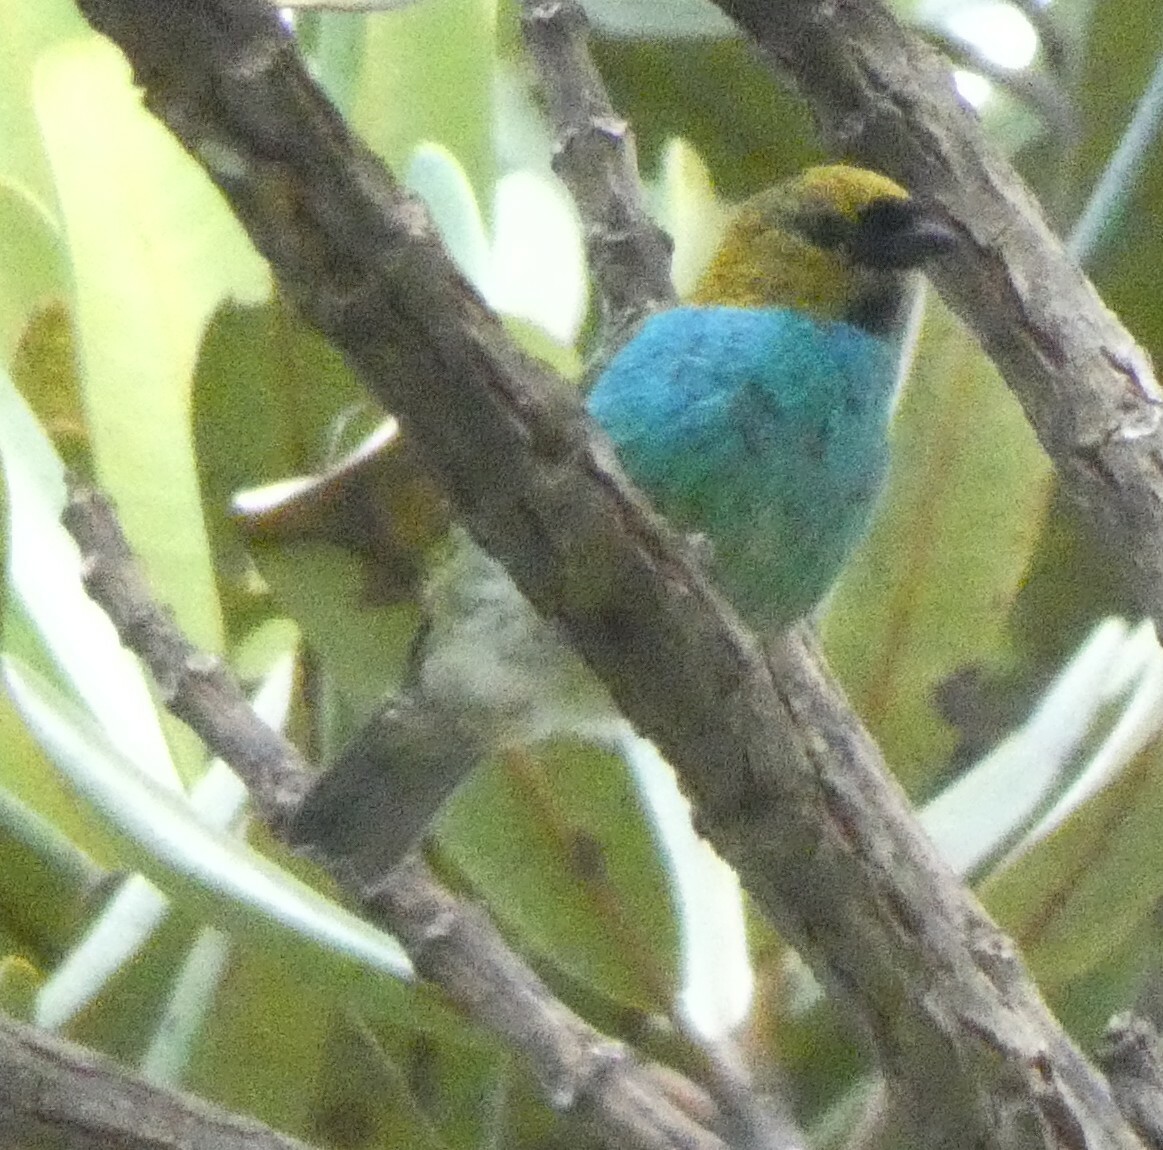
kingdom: Animalia
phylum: Chordata
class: Aves
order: Passeriformes
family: Thraupidae
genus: Tangara
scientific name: Tangara cyanoventris
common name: Gilt-edged tanager
